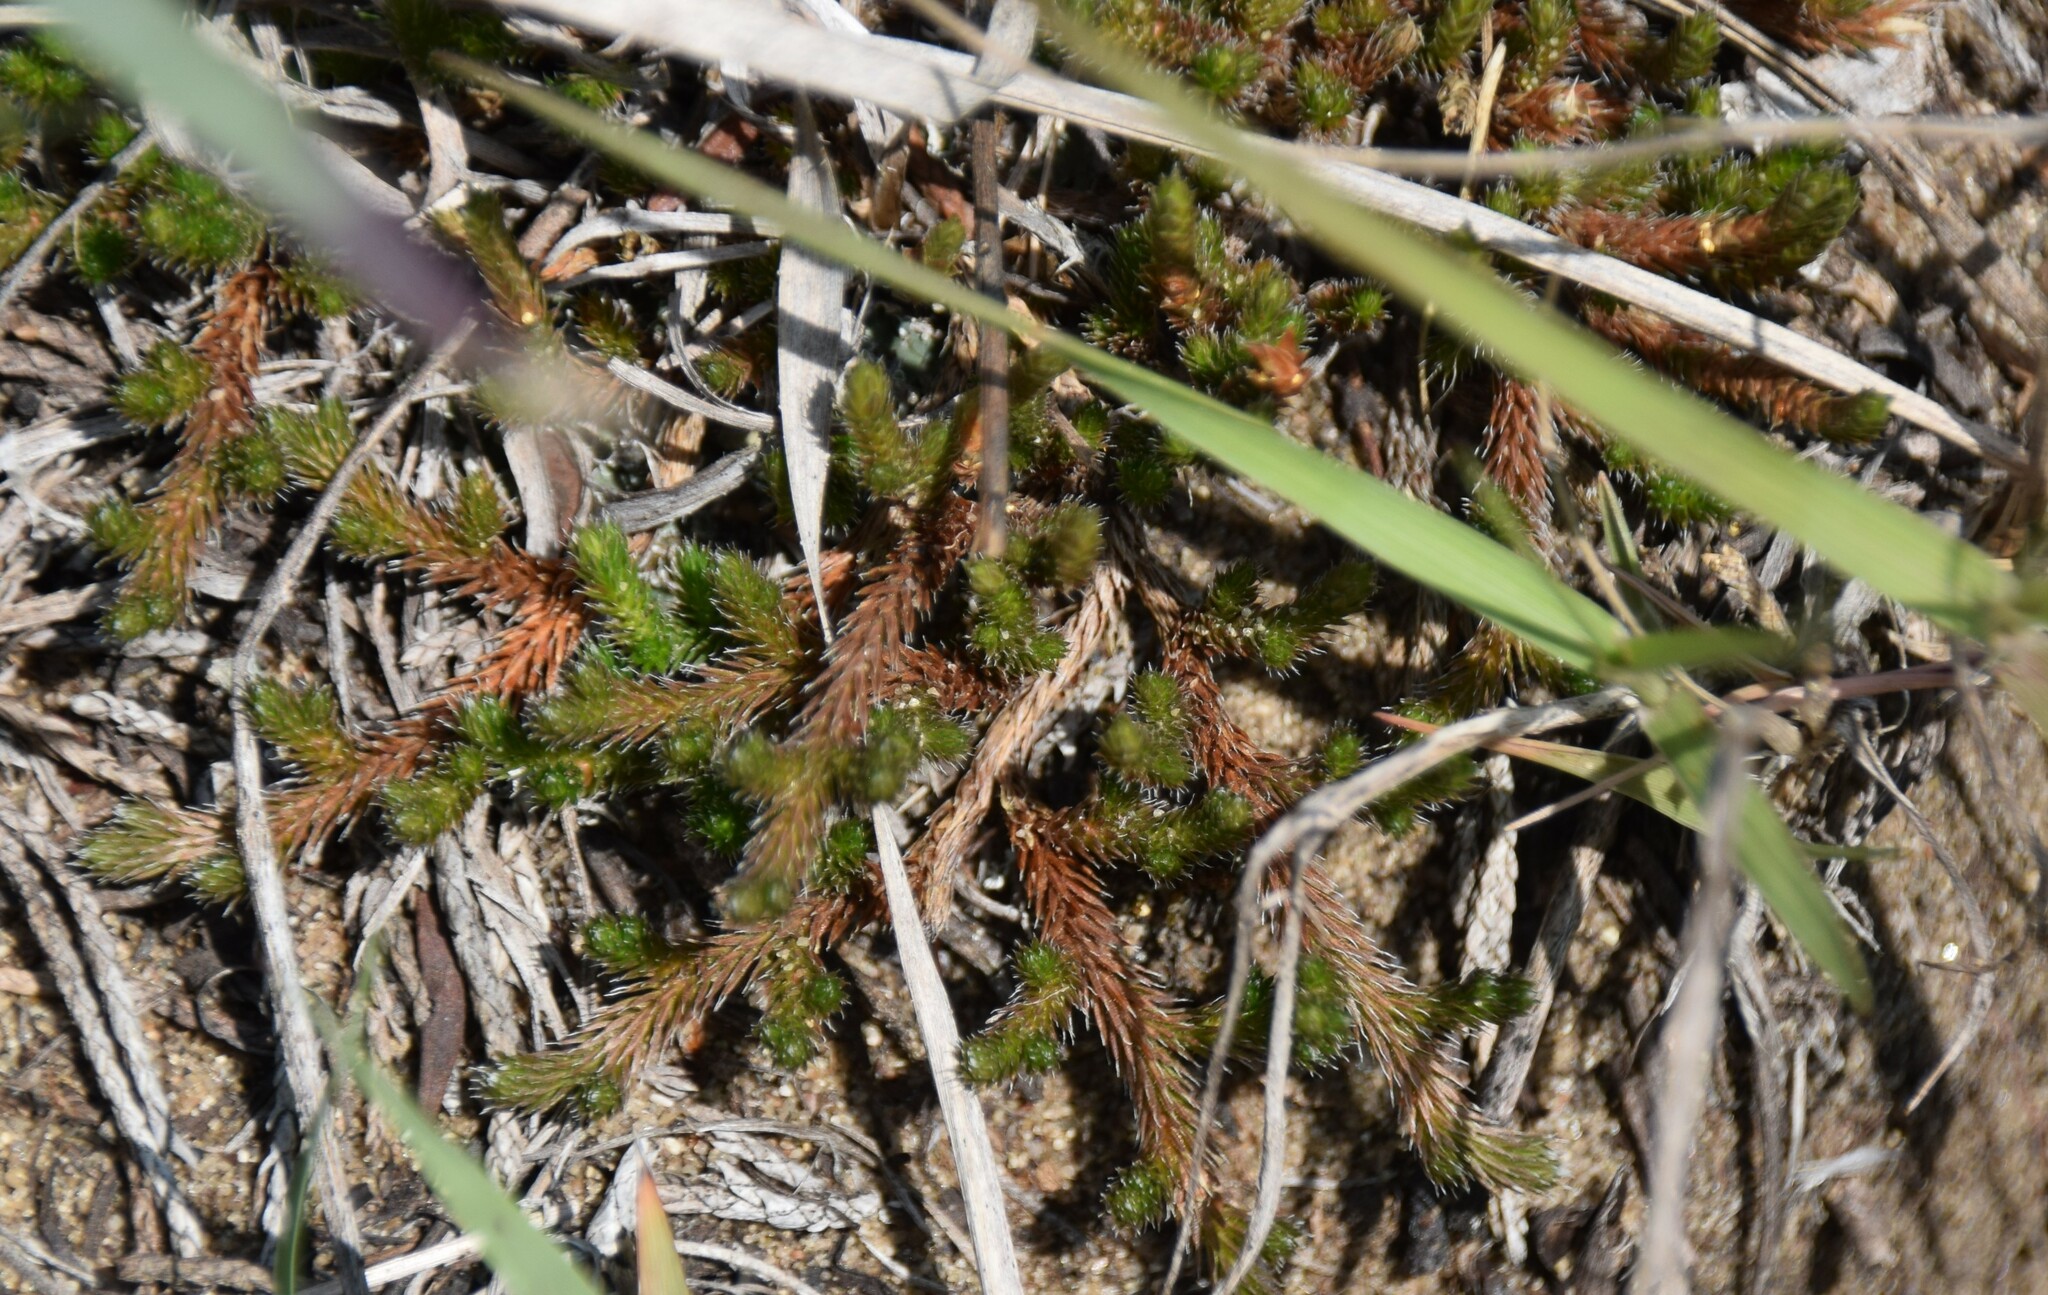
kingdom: Plantae
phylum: Tracheophyta
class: Lycopodiopsida
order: Selaginellales
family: Selaginellaceae
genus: Selaginella
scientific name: Selaginella rupestris
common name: Dwarf spikemoss
